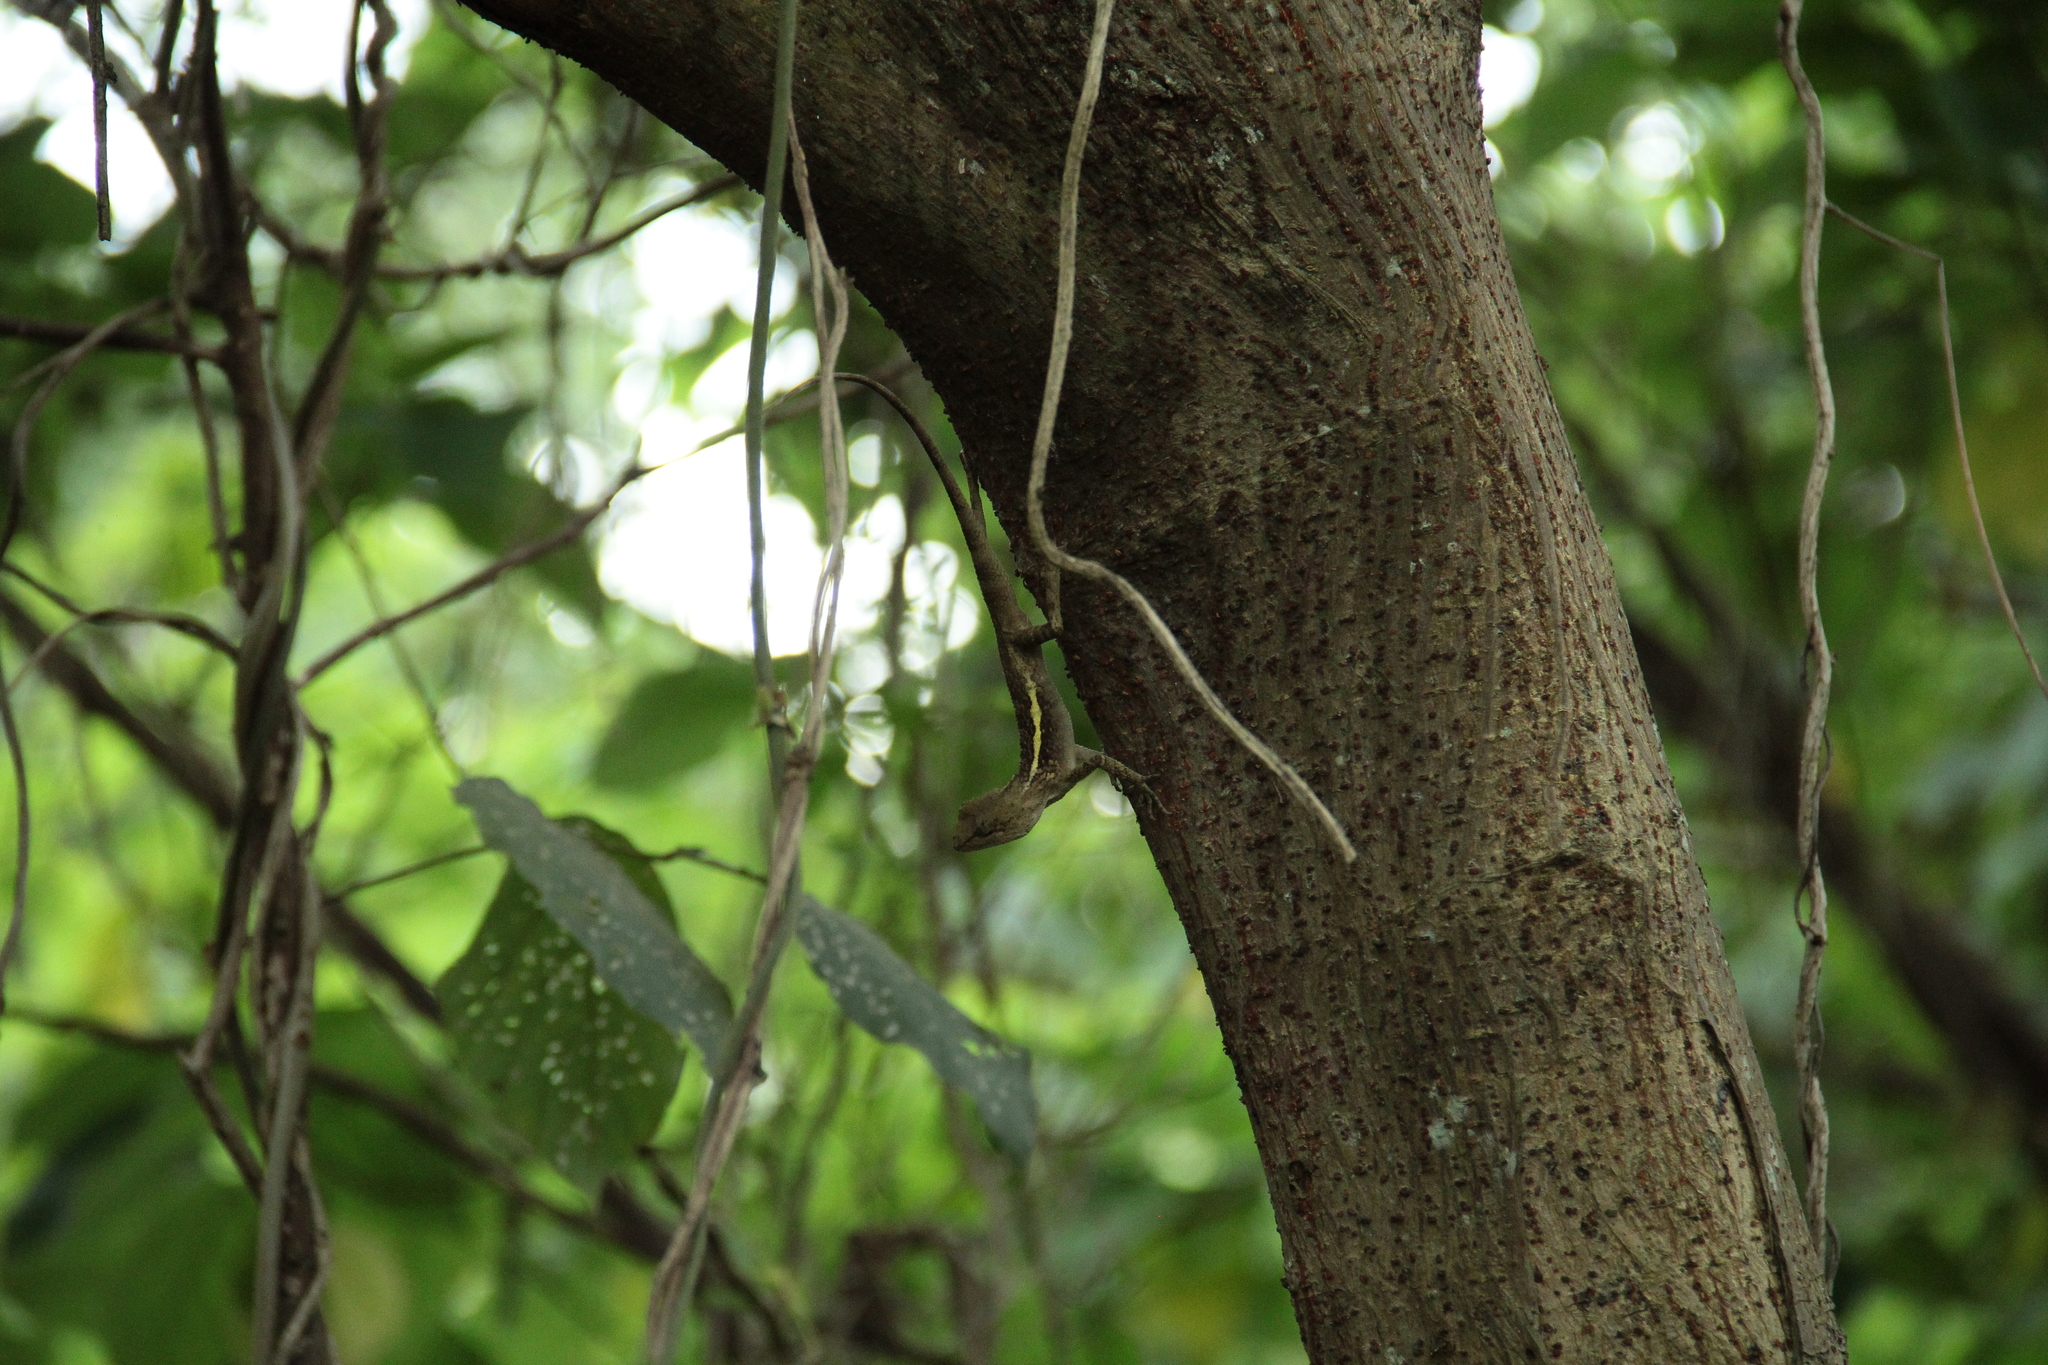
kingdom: Animalia
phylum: Chordata
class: Squamata
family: Agamidae
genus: Diploderma
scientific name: Diploderma swinhonis
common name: Taiwan japalure
